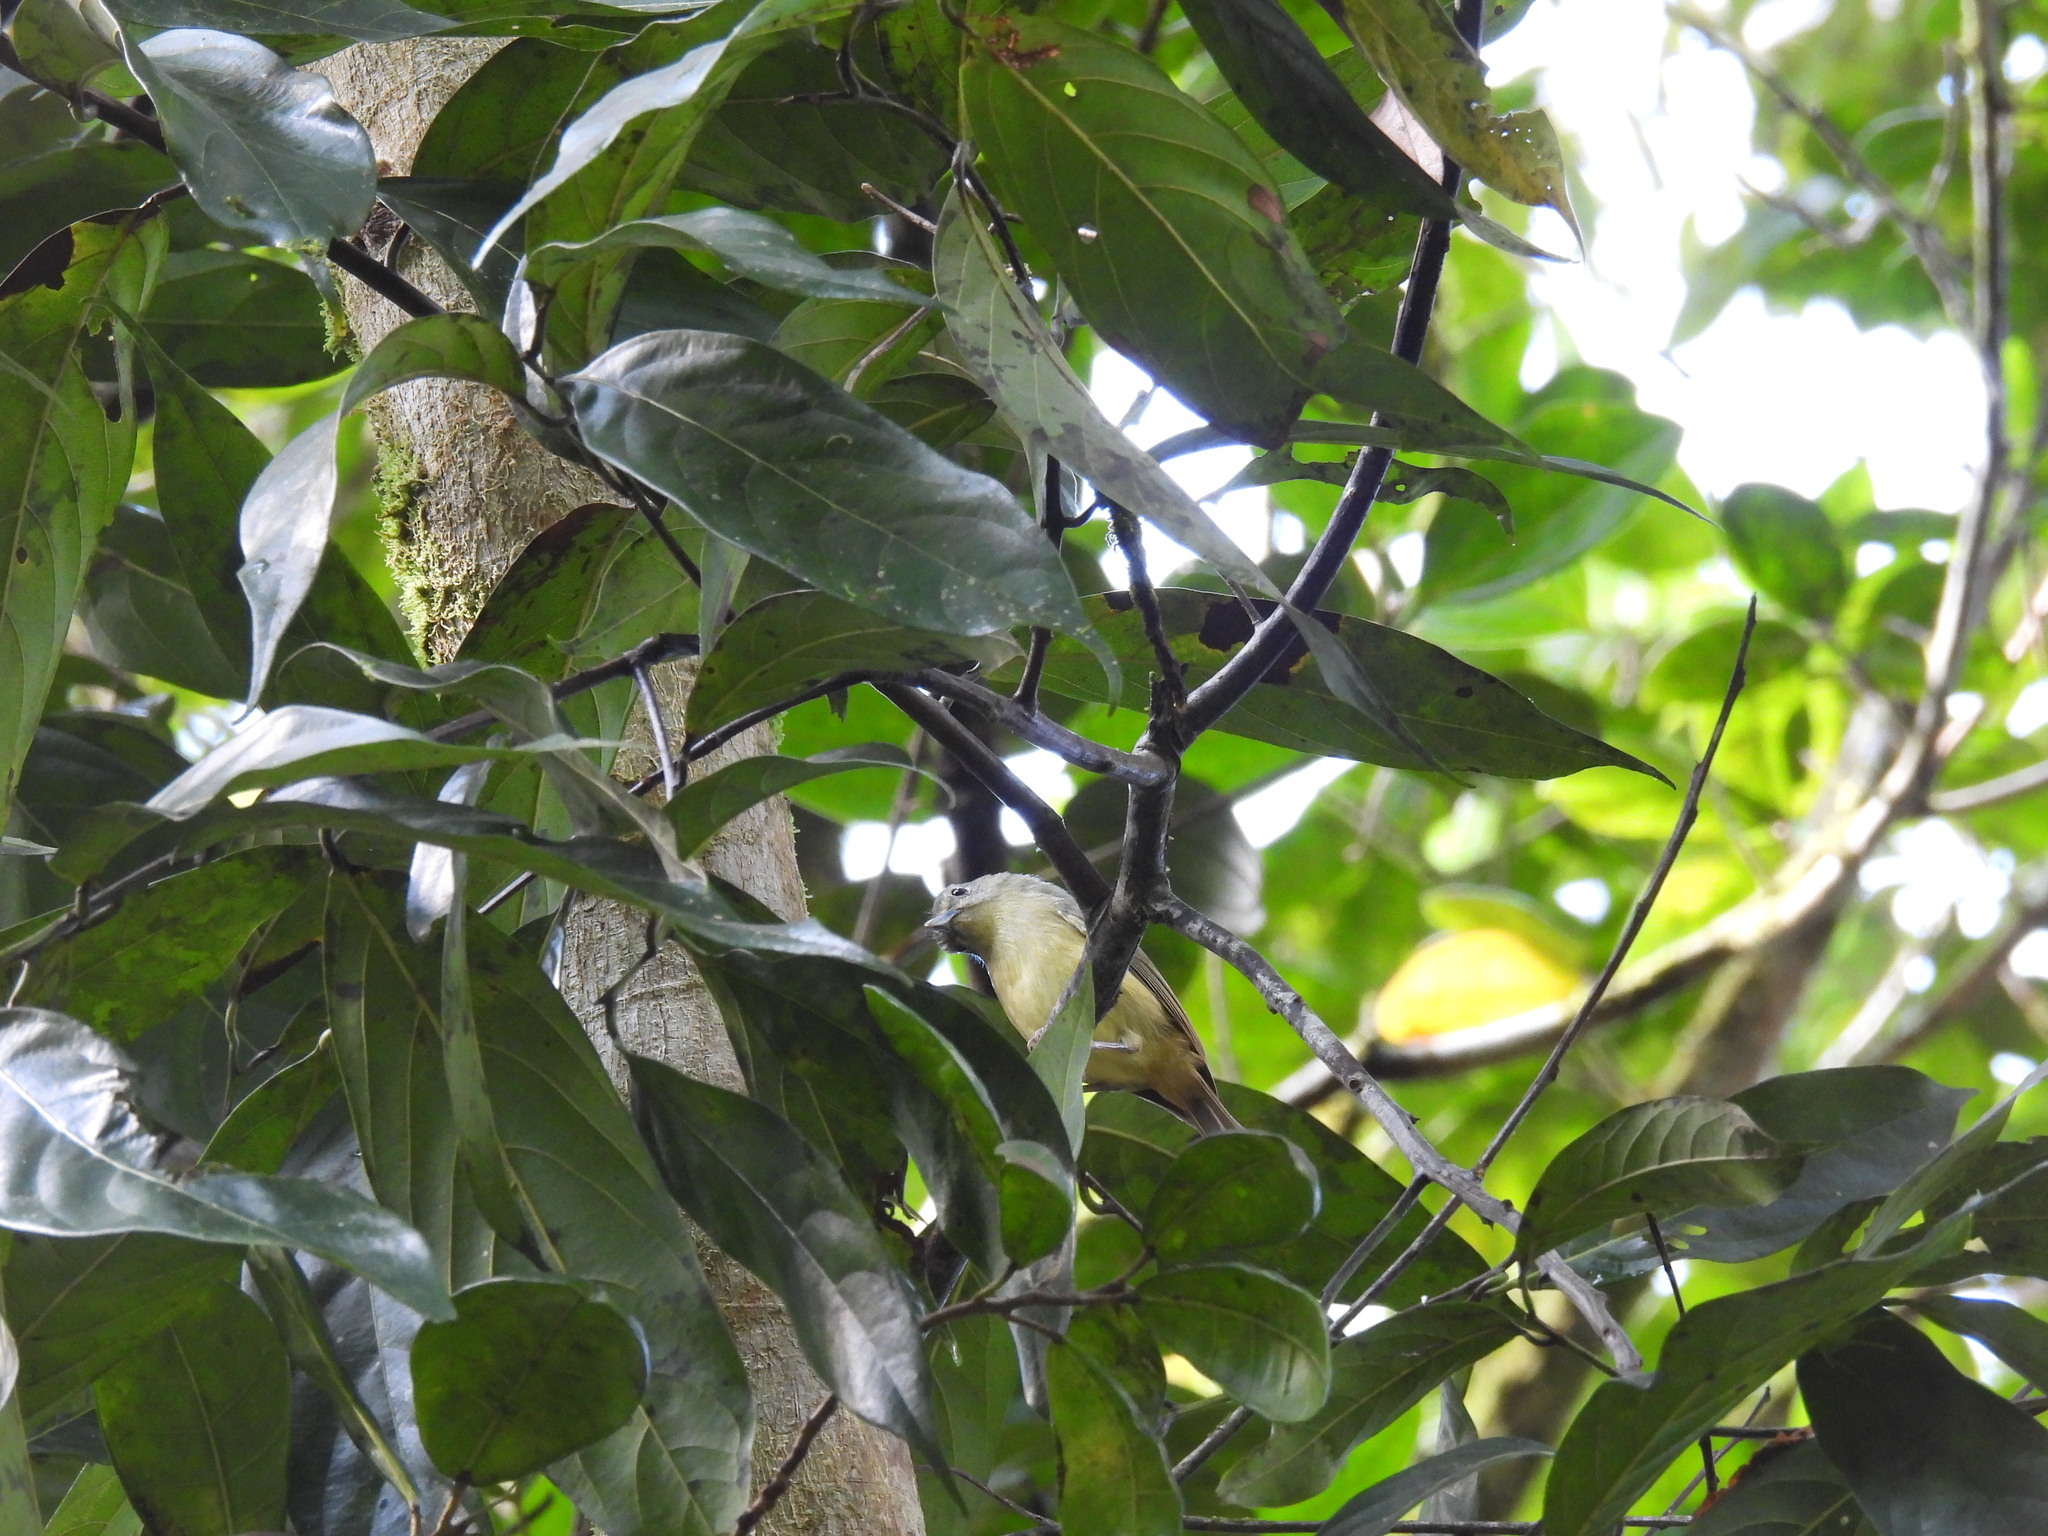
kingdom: Animalia
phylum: Chordata
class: Aves
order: Passeriformes
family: Vireonidae
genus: Vireo
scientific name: Vireo osburni
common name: Blue mountain vireo
